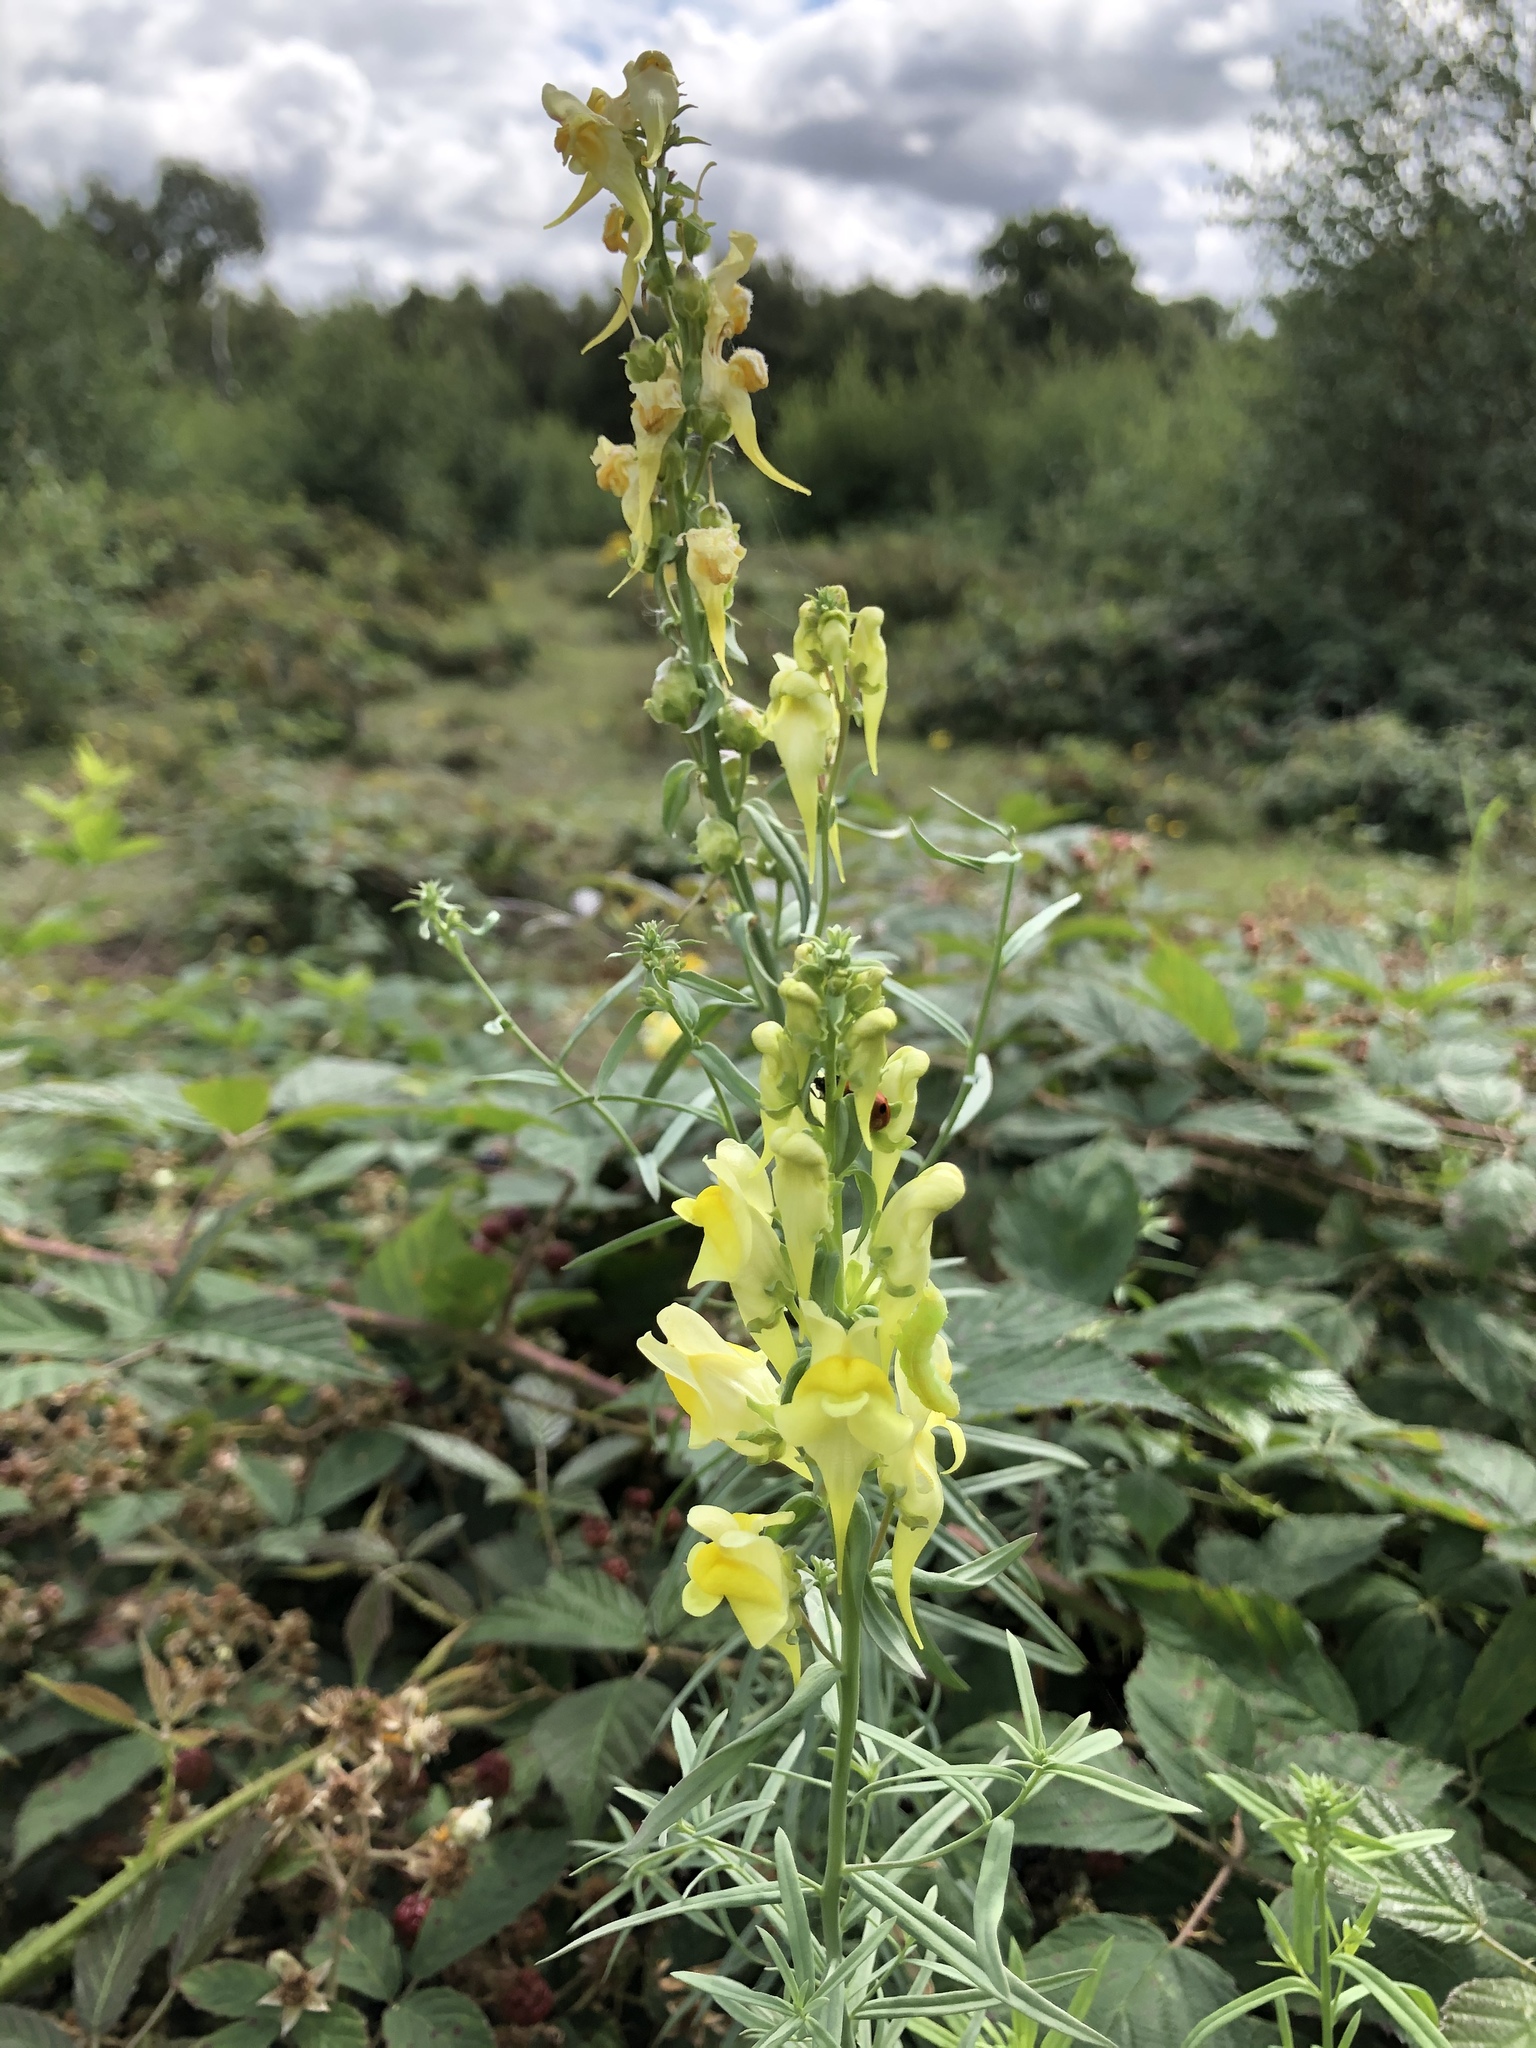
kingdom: Plantae
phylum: Tracheophyta
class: Magnoliopsida
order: Lamiales
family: Plantaginaceae
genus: Linaria
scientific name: Linaria vulgaris
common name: Butter and eggs
